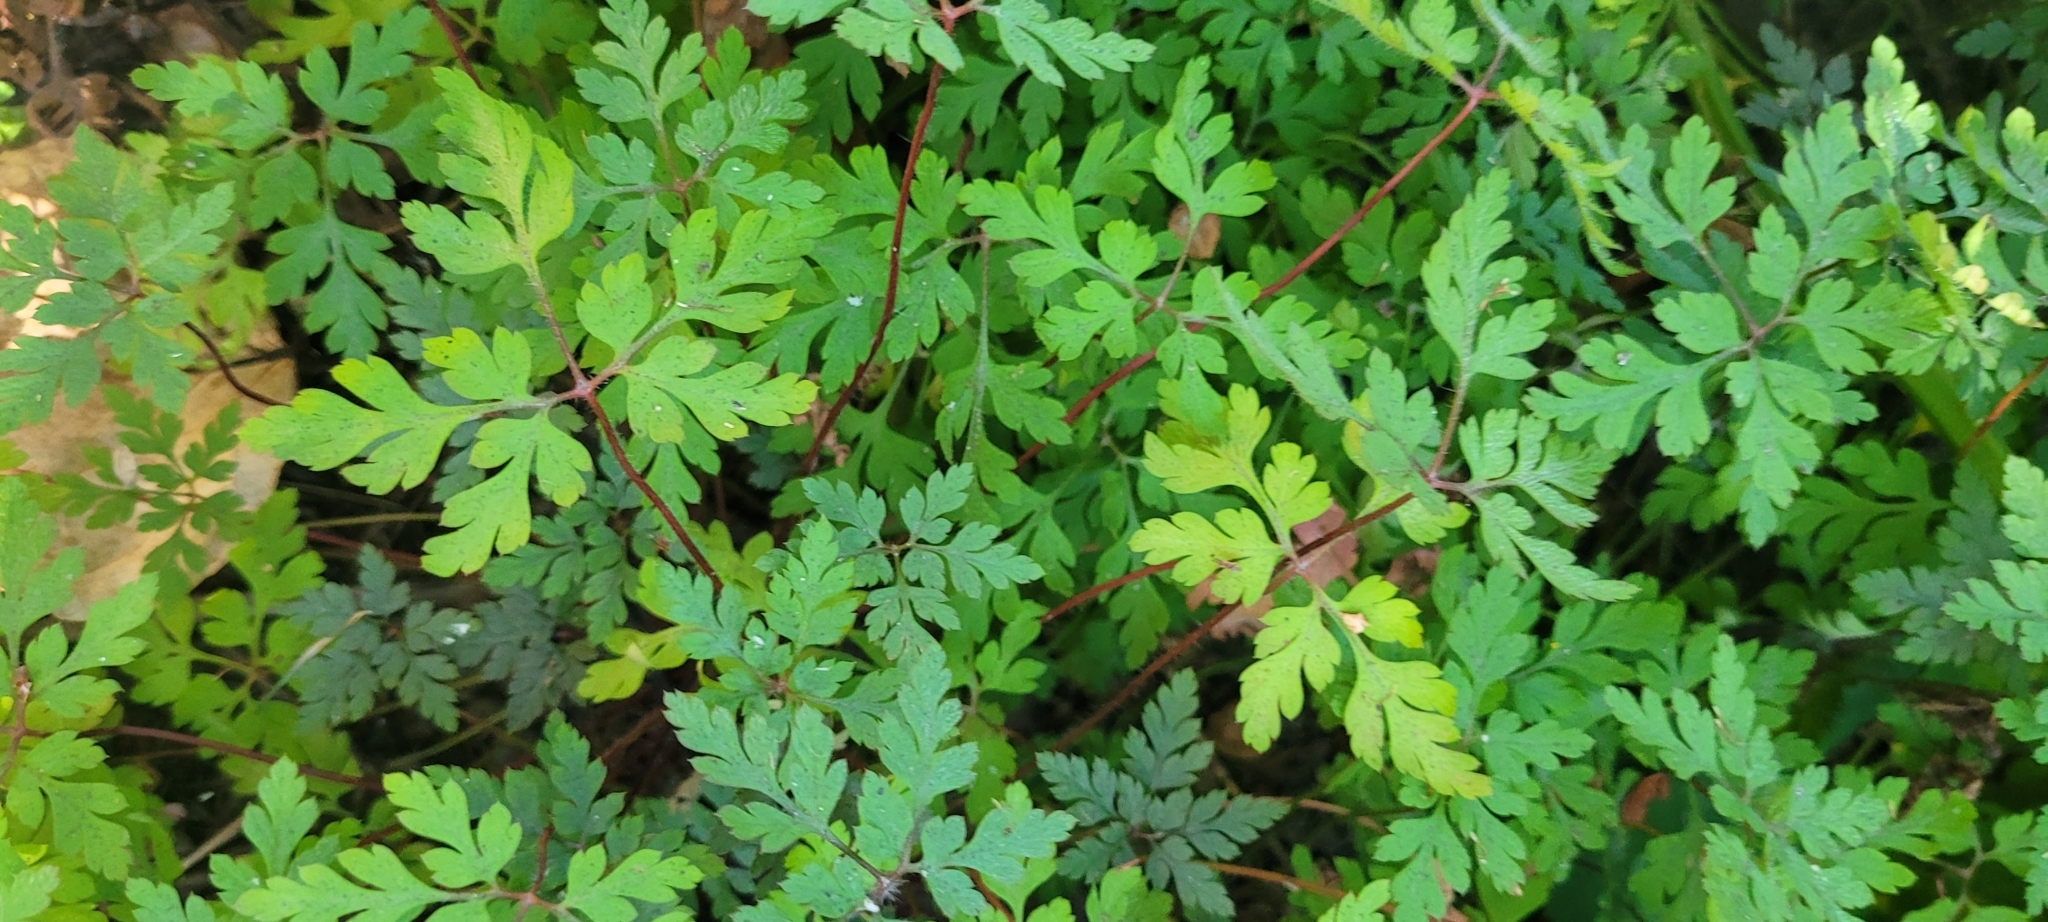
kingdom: Plantae
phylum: Tracheophyta
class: Magnoliopsida
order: Geraniales
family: Geraniaceae
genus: Geranium
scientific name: Geranium robertianum
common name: Herb-robert
